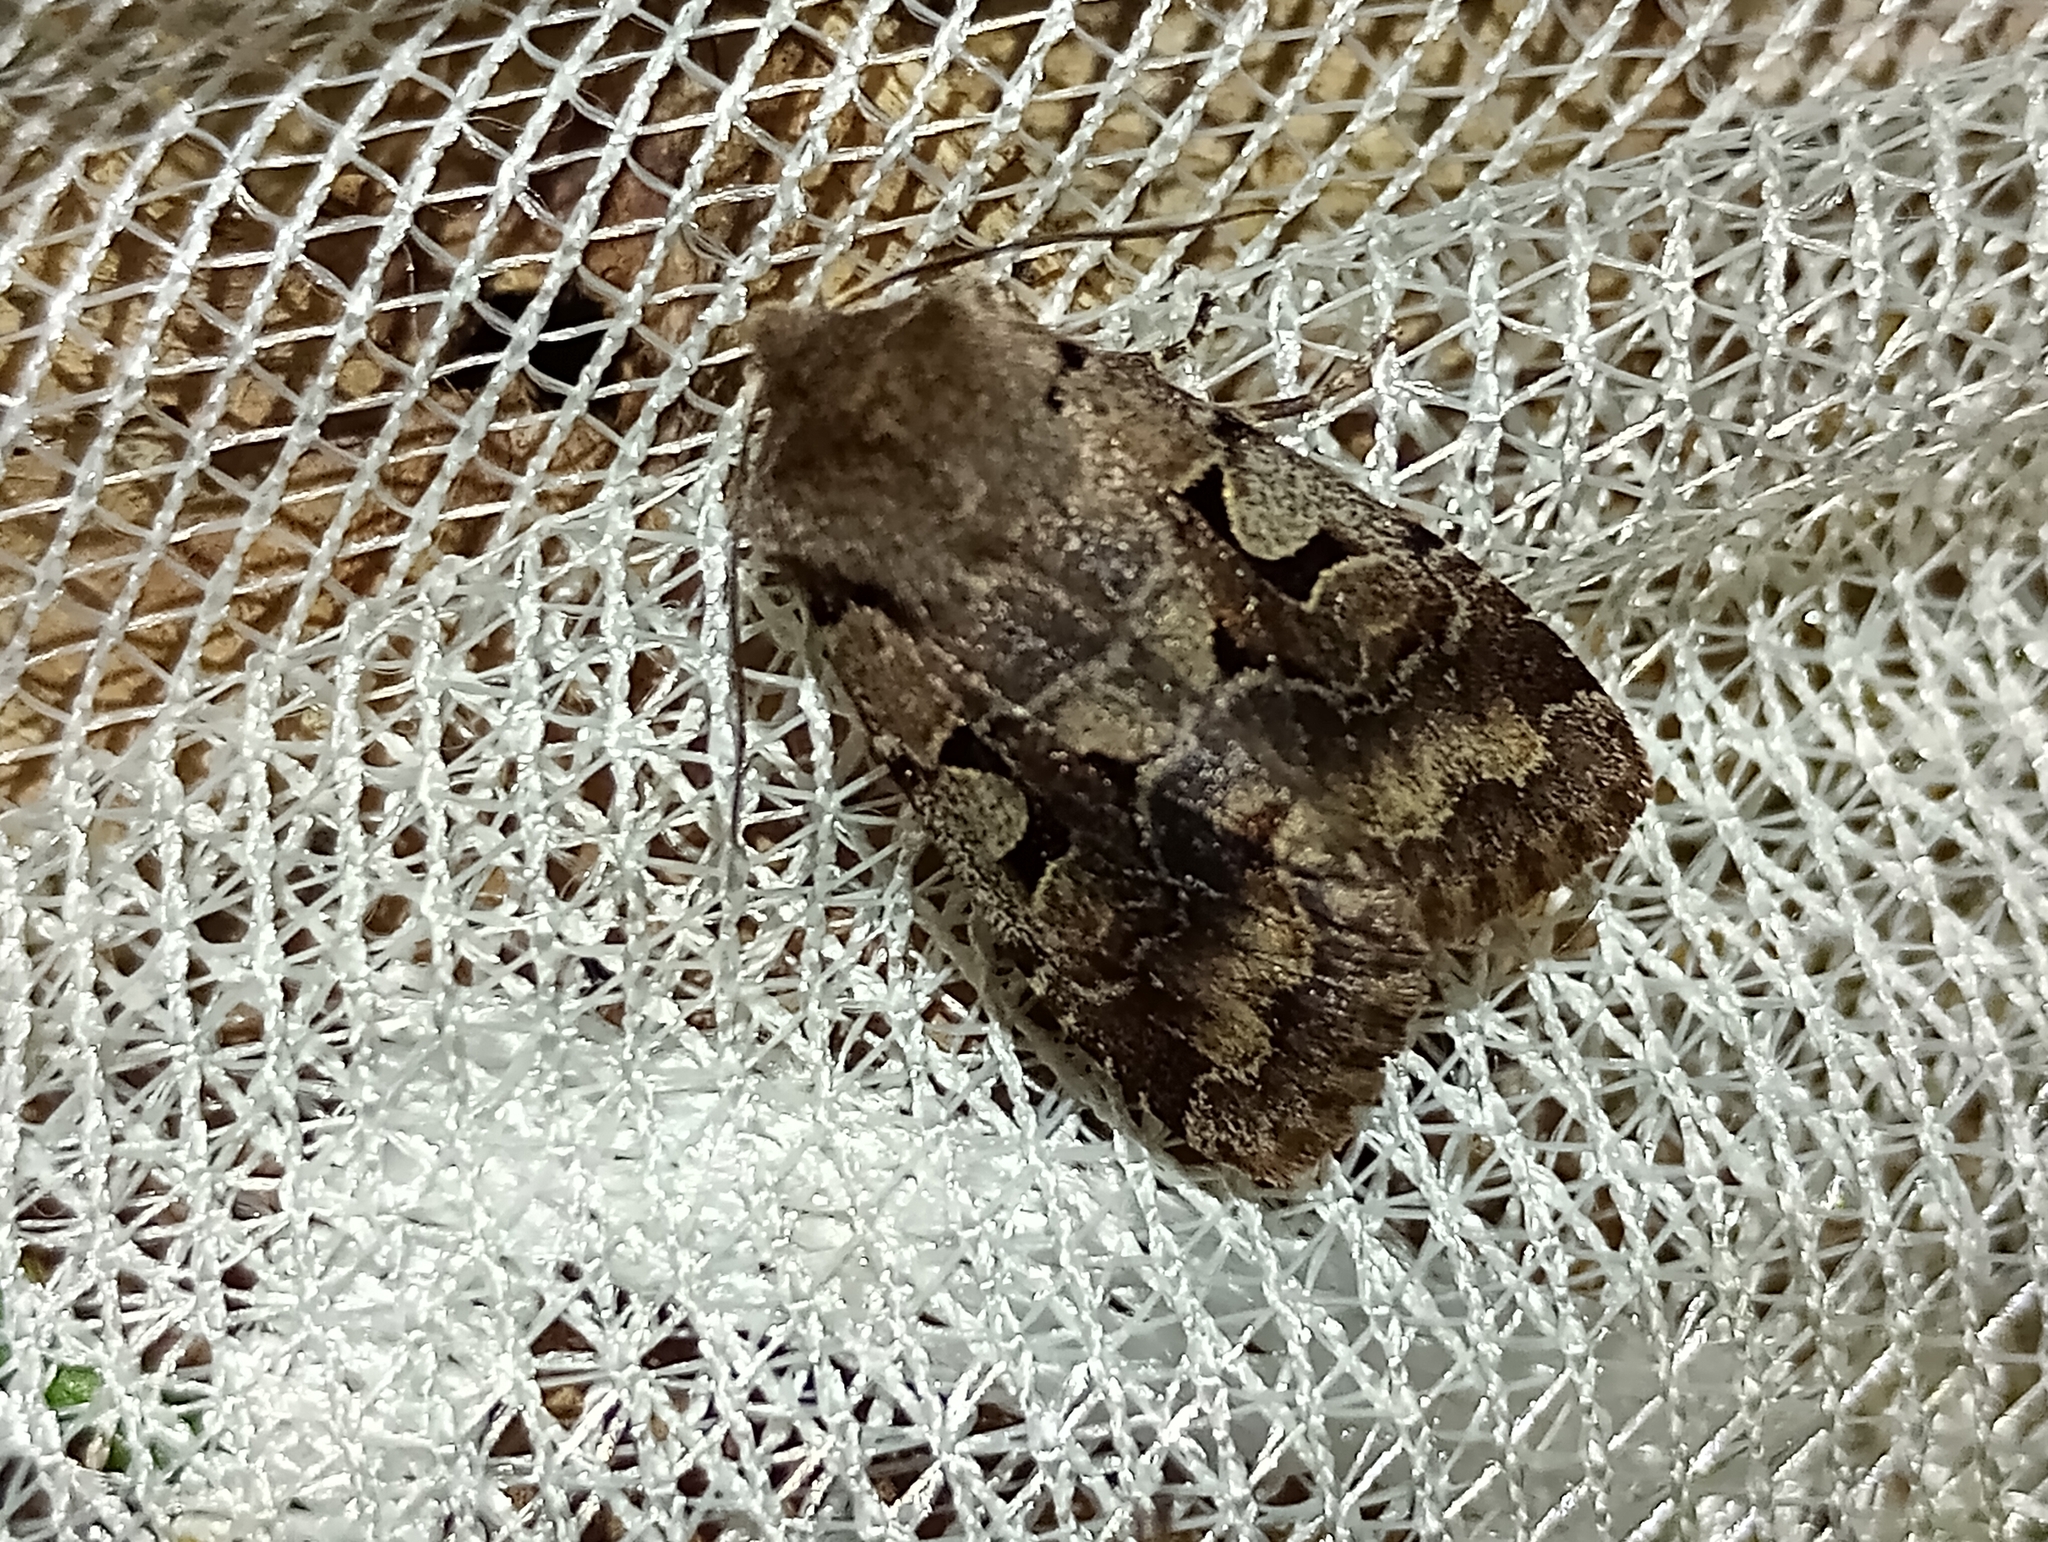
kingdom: Animalia
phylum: Arthropoda
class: Insecta
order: Lepidoptera
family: Noctuidae
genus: Orthosia
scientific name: Orthosia gothica
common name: Hebrew character
